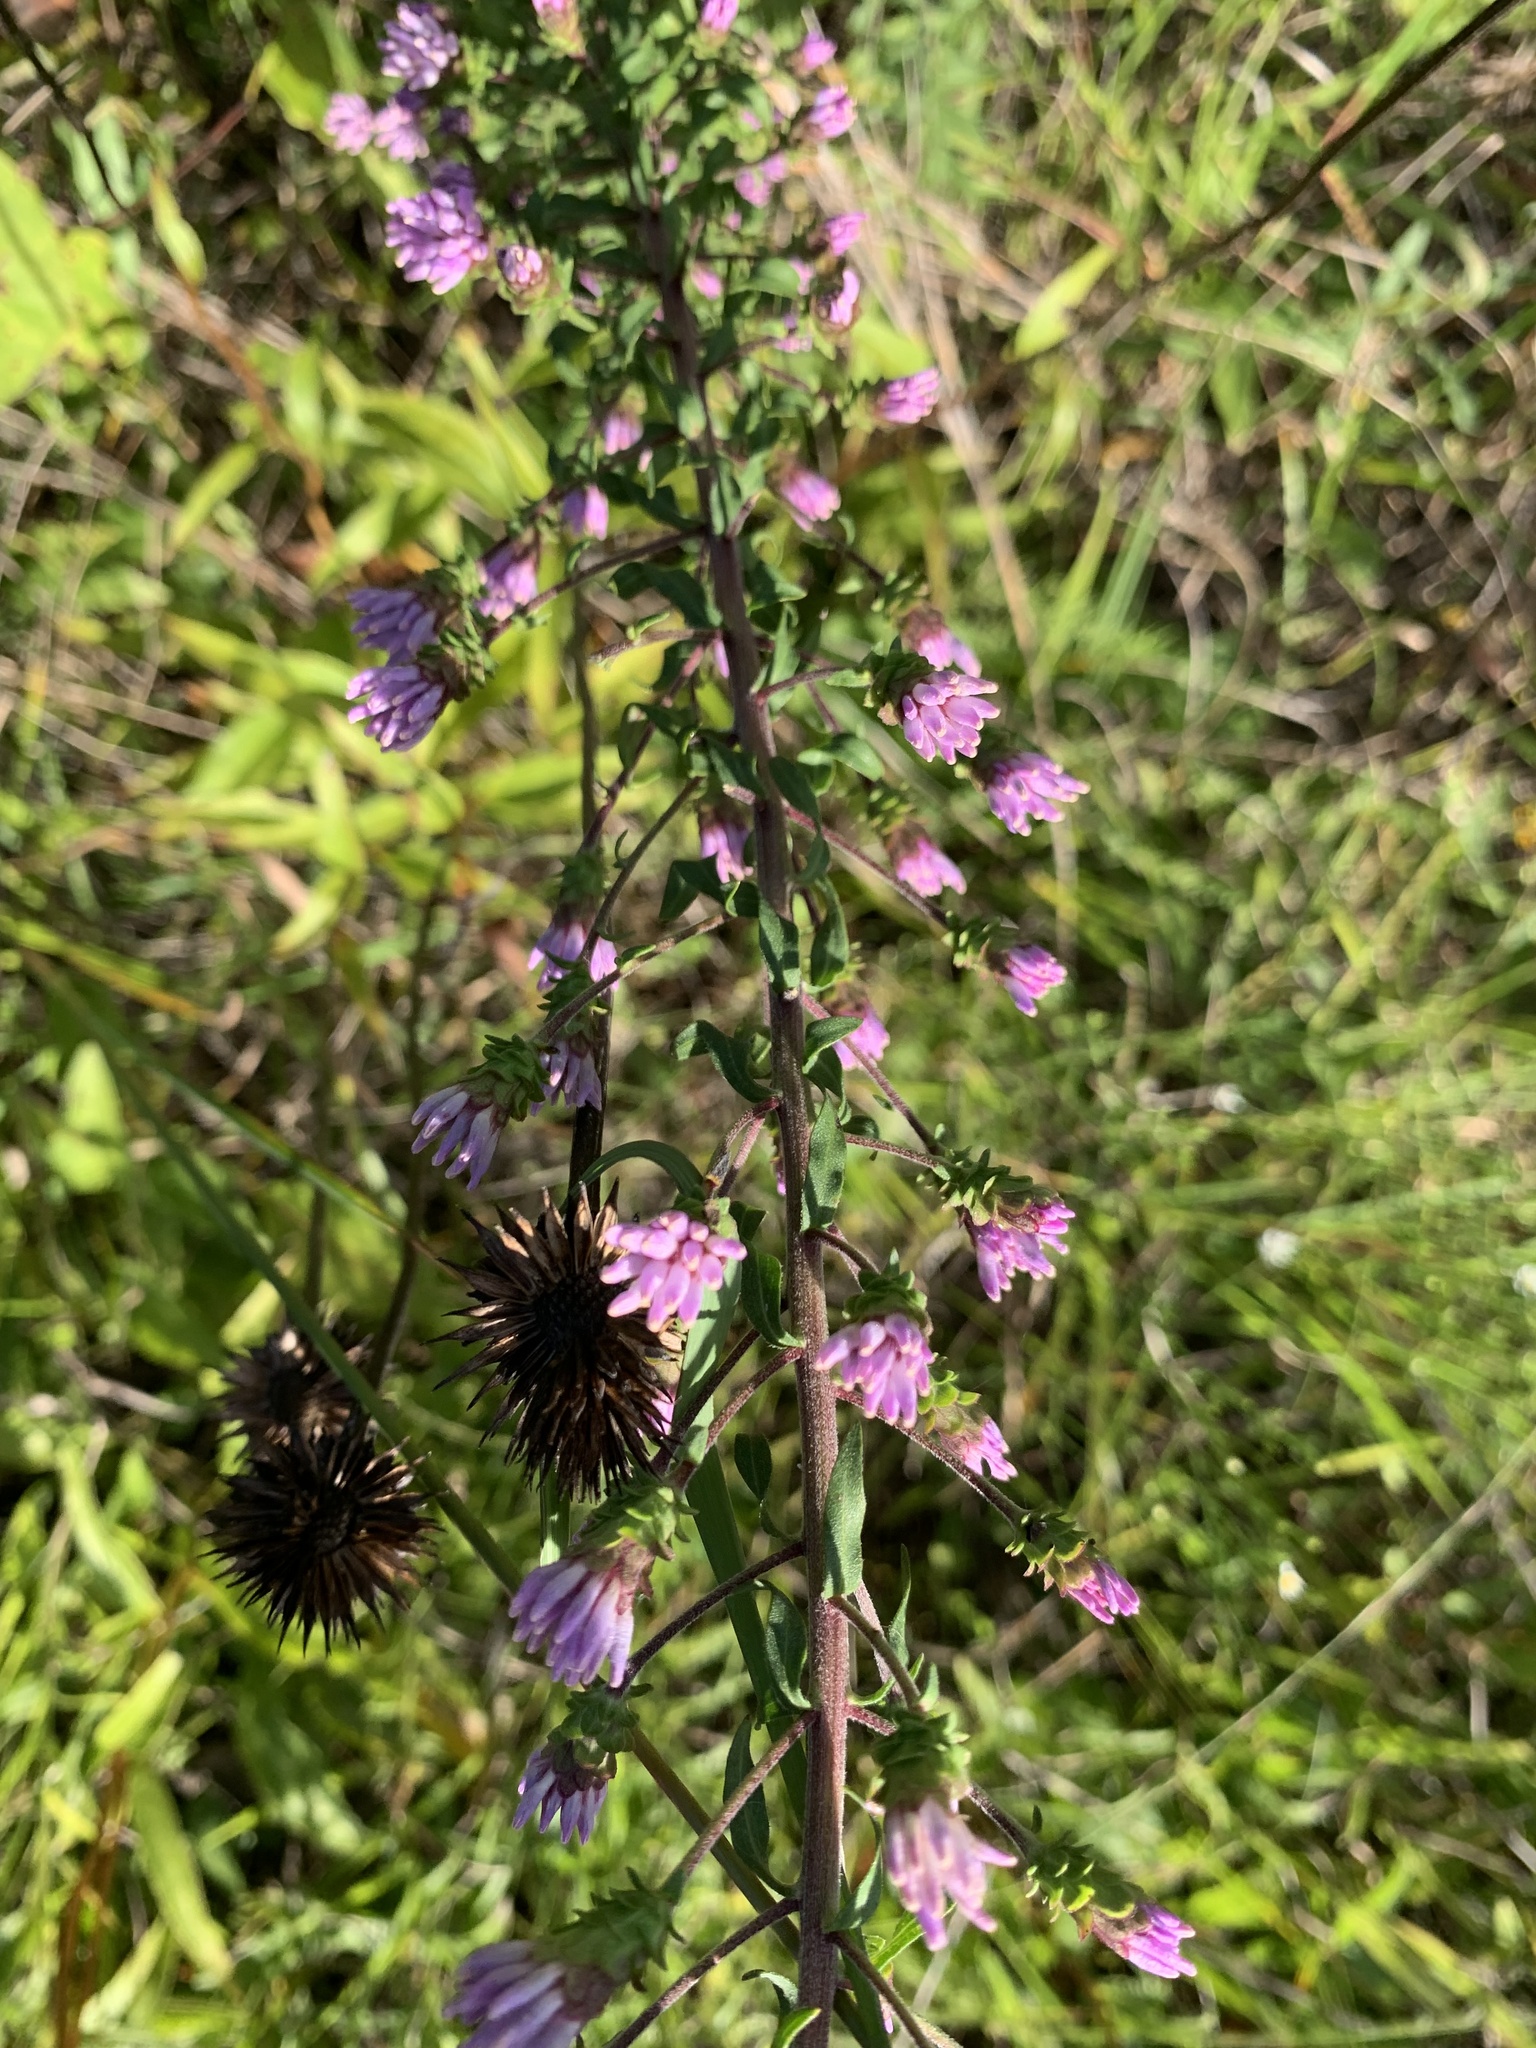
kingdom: Plantae
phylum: Tracheophyta
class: Magnoliopsida
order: Asterales
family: Asteraceae
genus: Liatris
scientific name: Liatris squarrulosa
